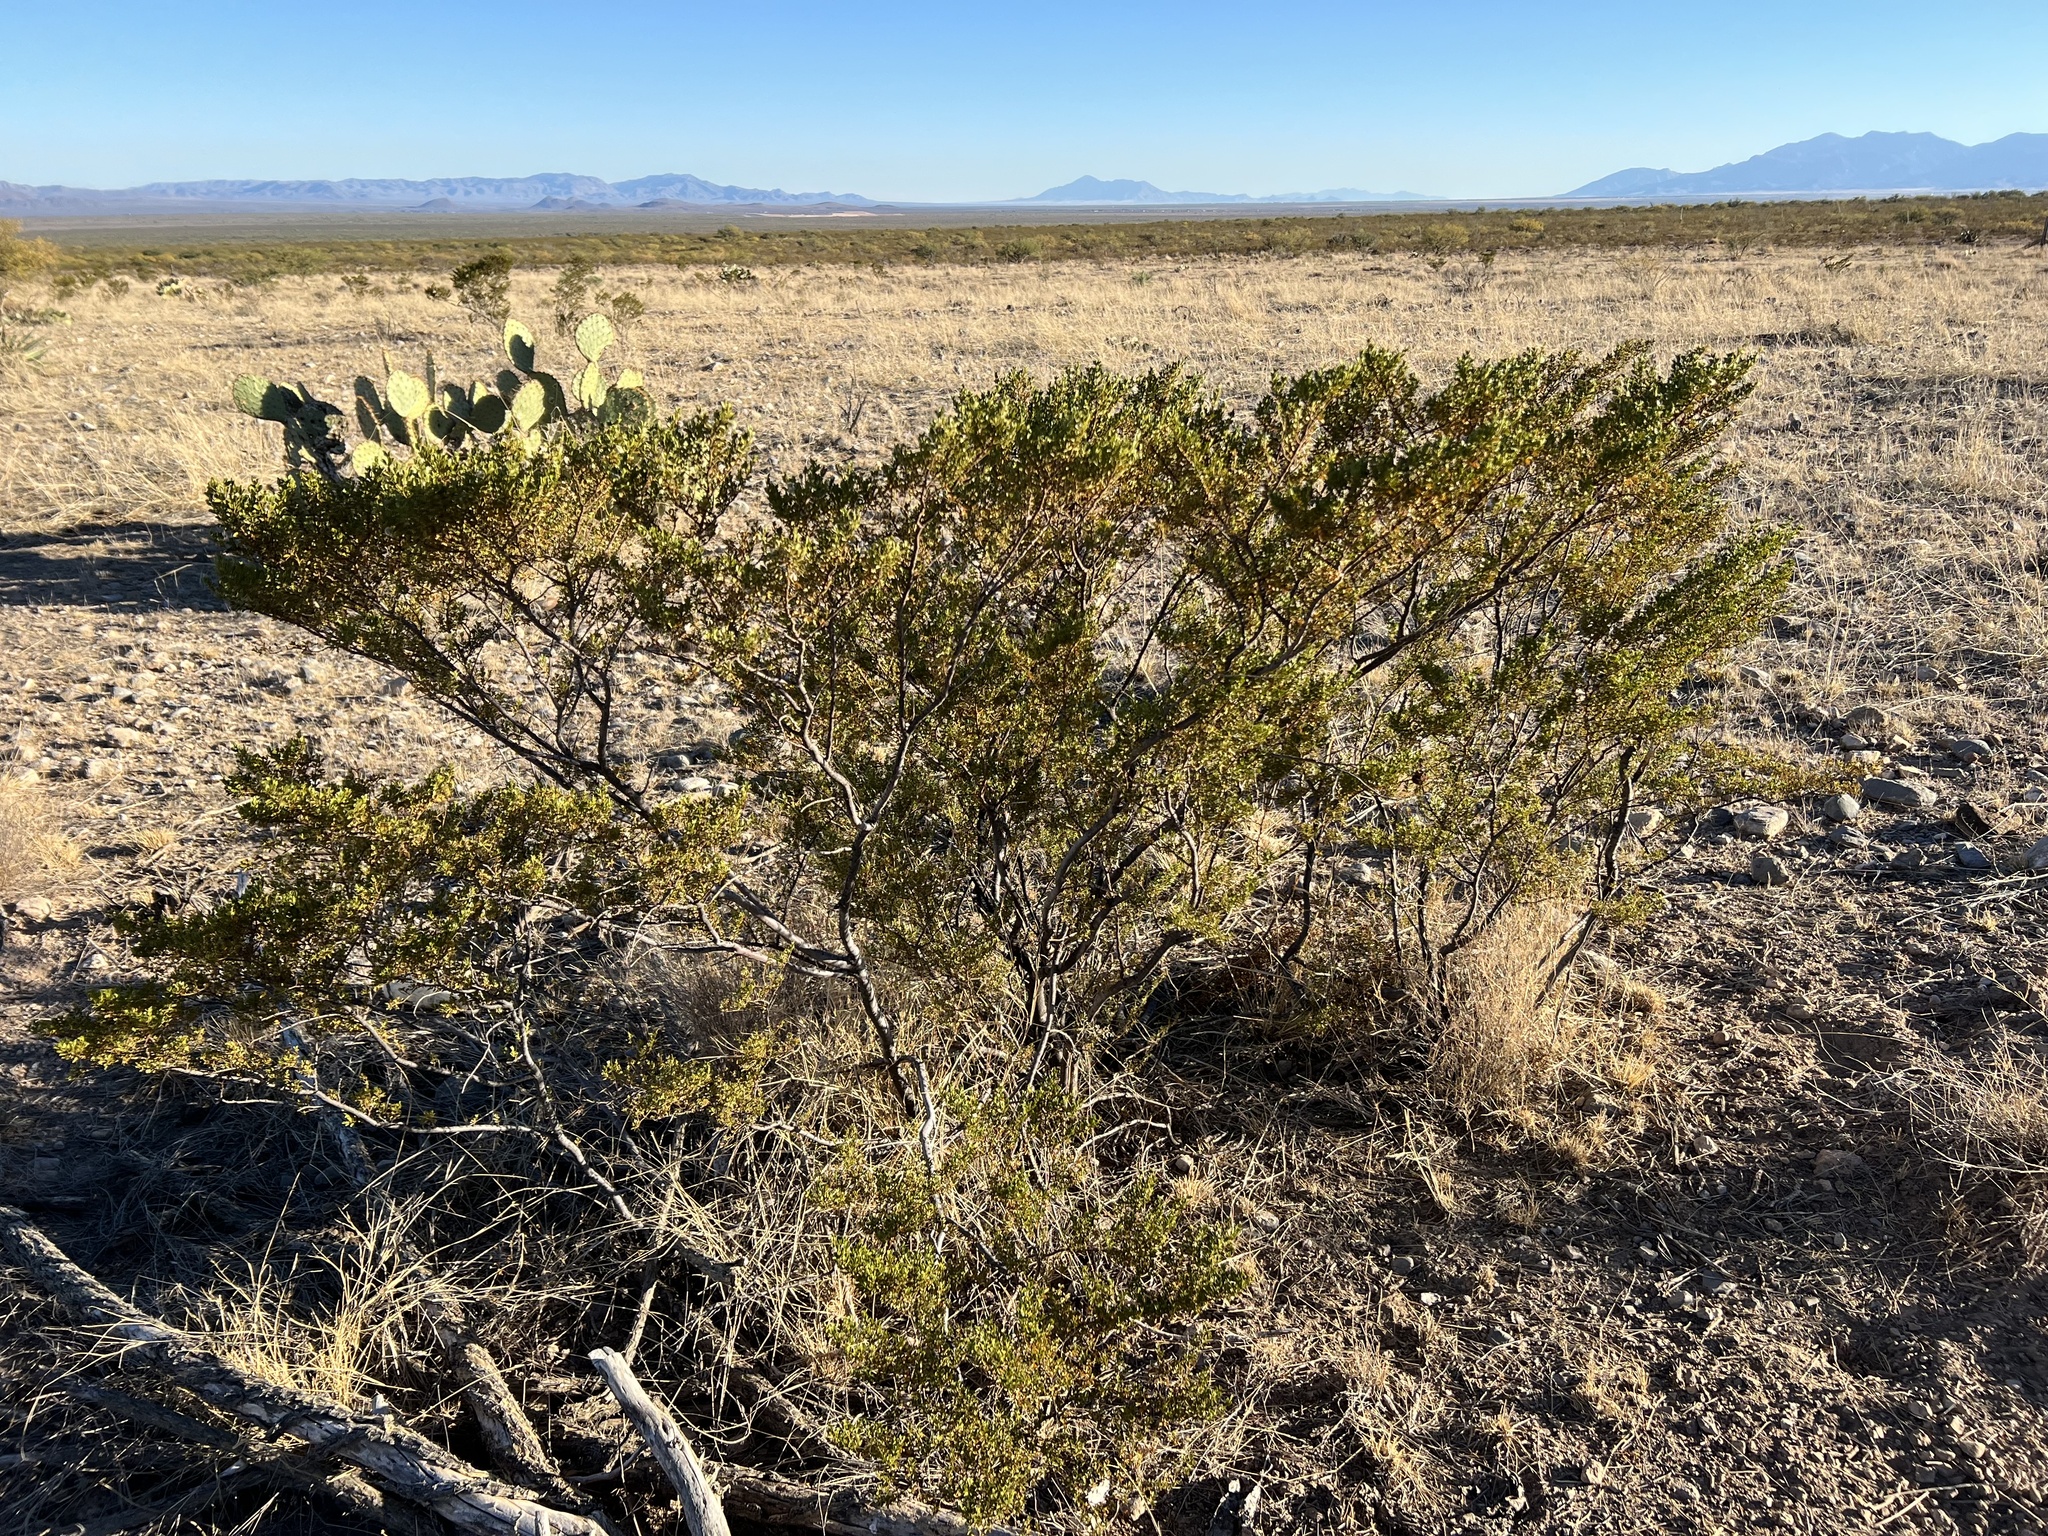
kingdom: Plantae
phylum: Tracheophyta
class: Magnoliopsida
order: Zygophyllales
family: Zygophyllaceae
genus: Larrea
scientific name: Larrea tridentata
